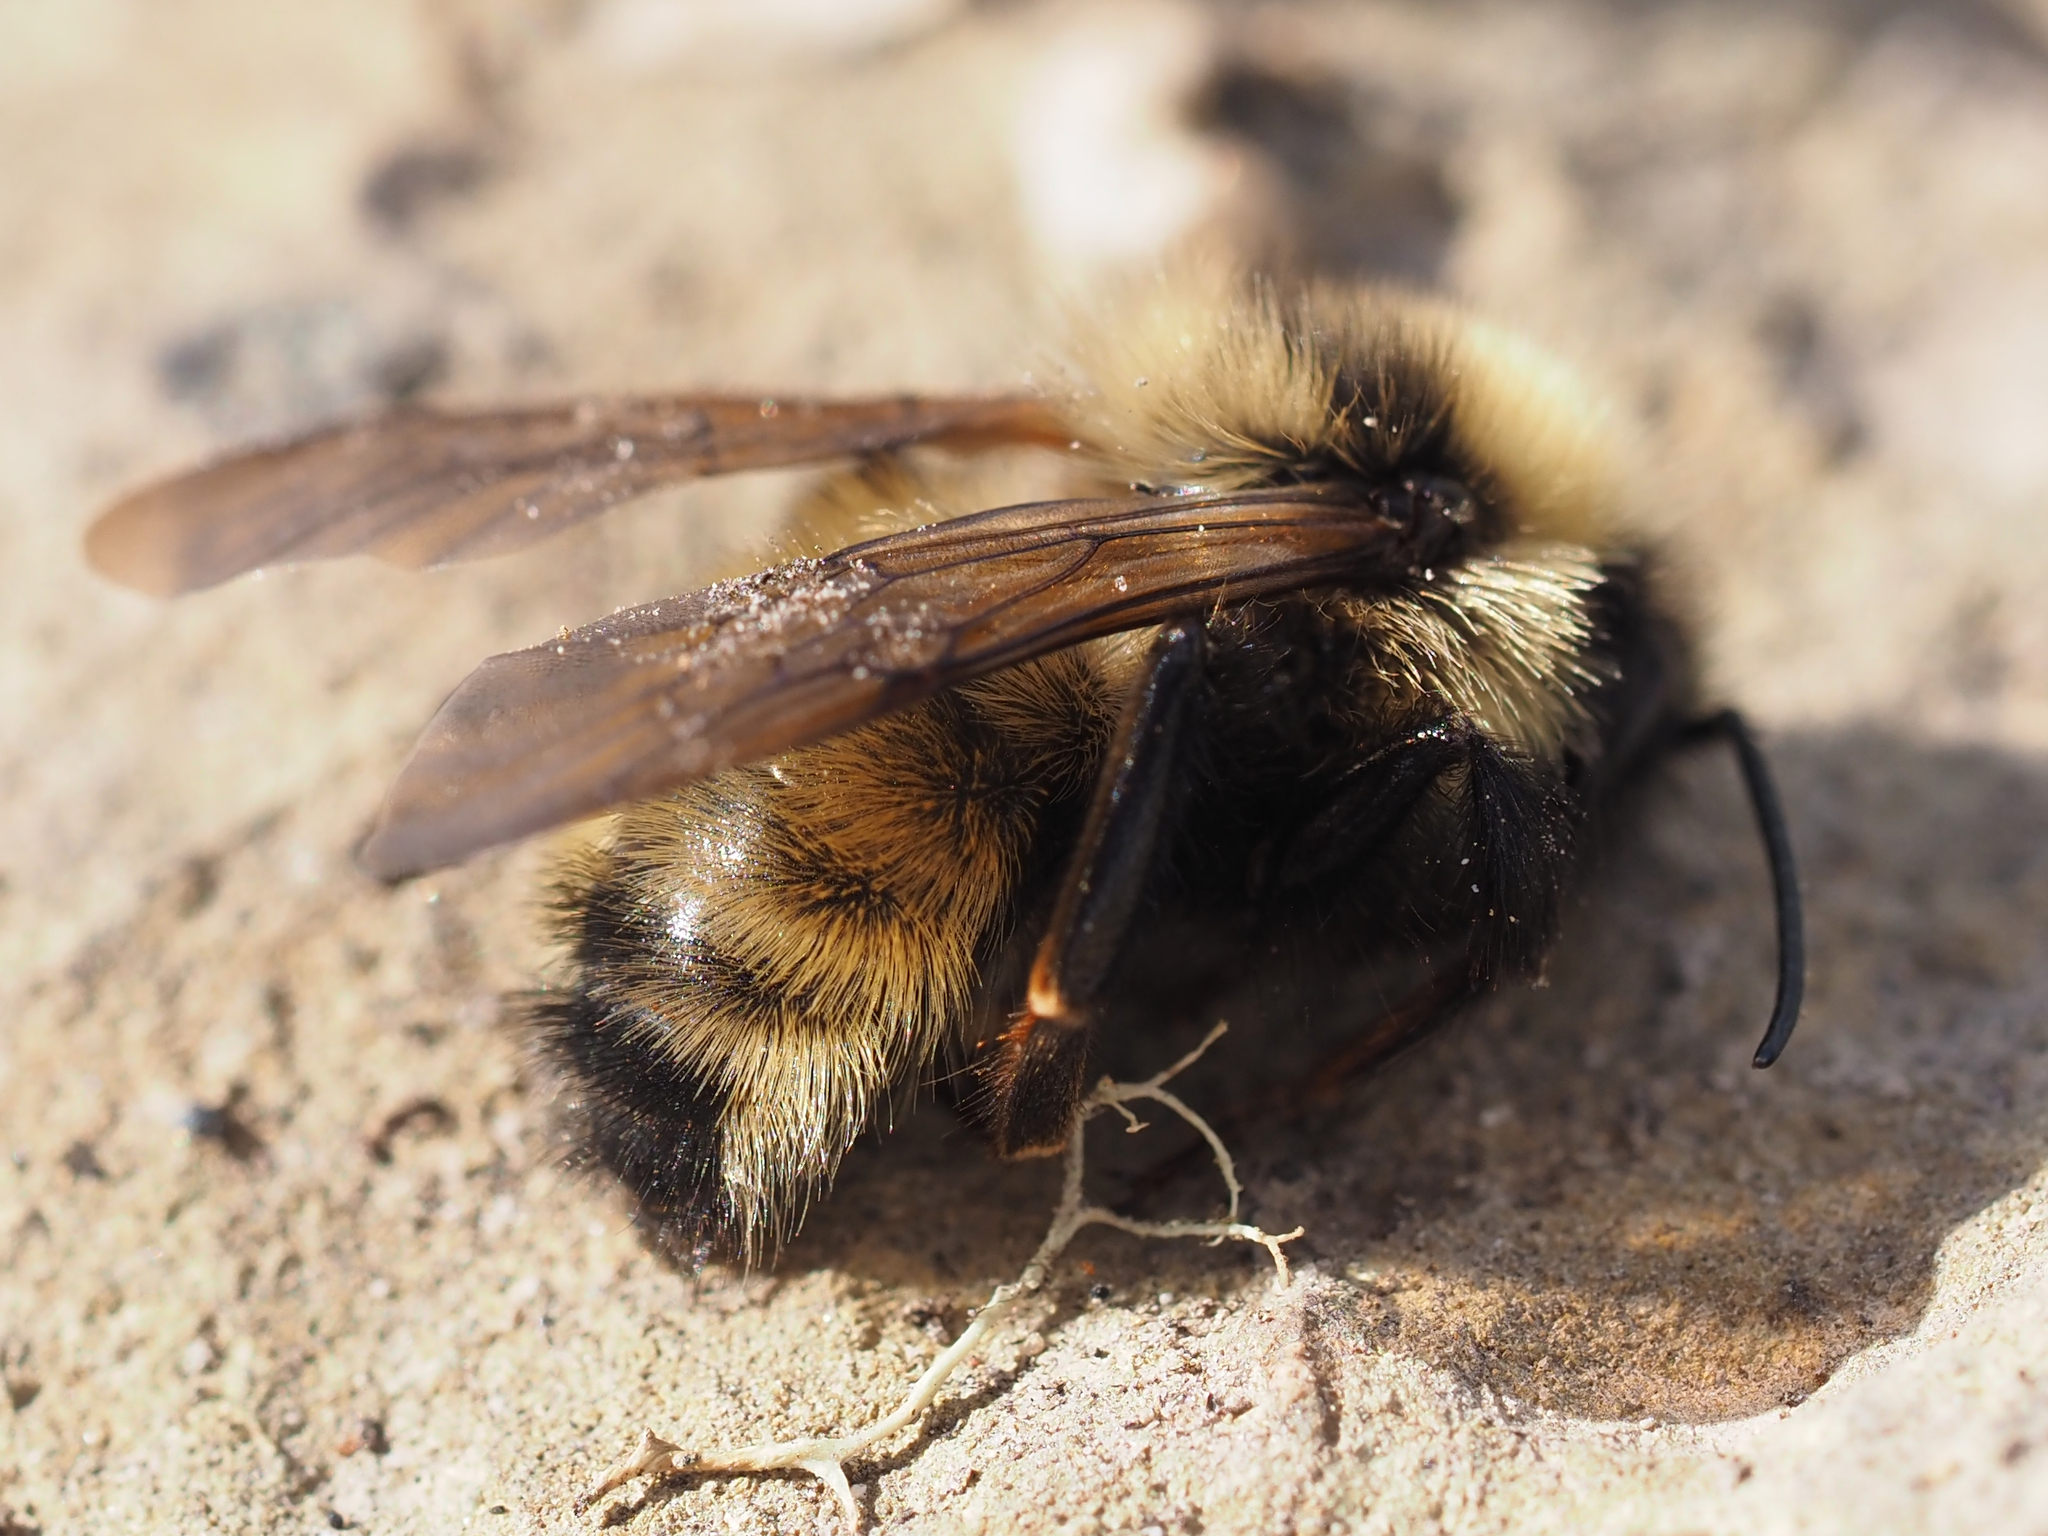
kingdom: Animalia
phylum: Arthropoda
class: Insecta
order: Hymenoptera
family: Apidae
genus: Bombus
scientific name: Bombus insularis
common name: Indiscriminate cuckoo bumble bee
